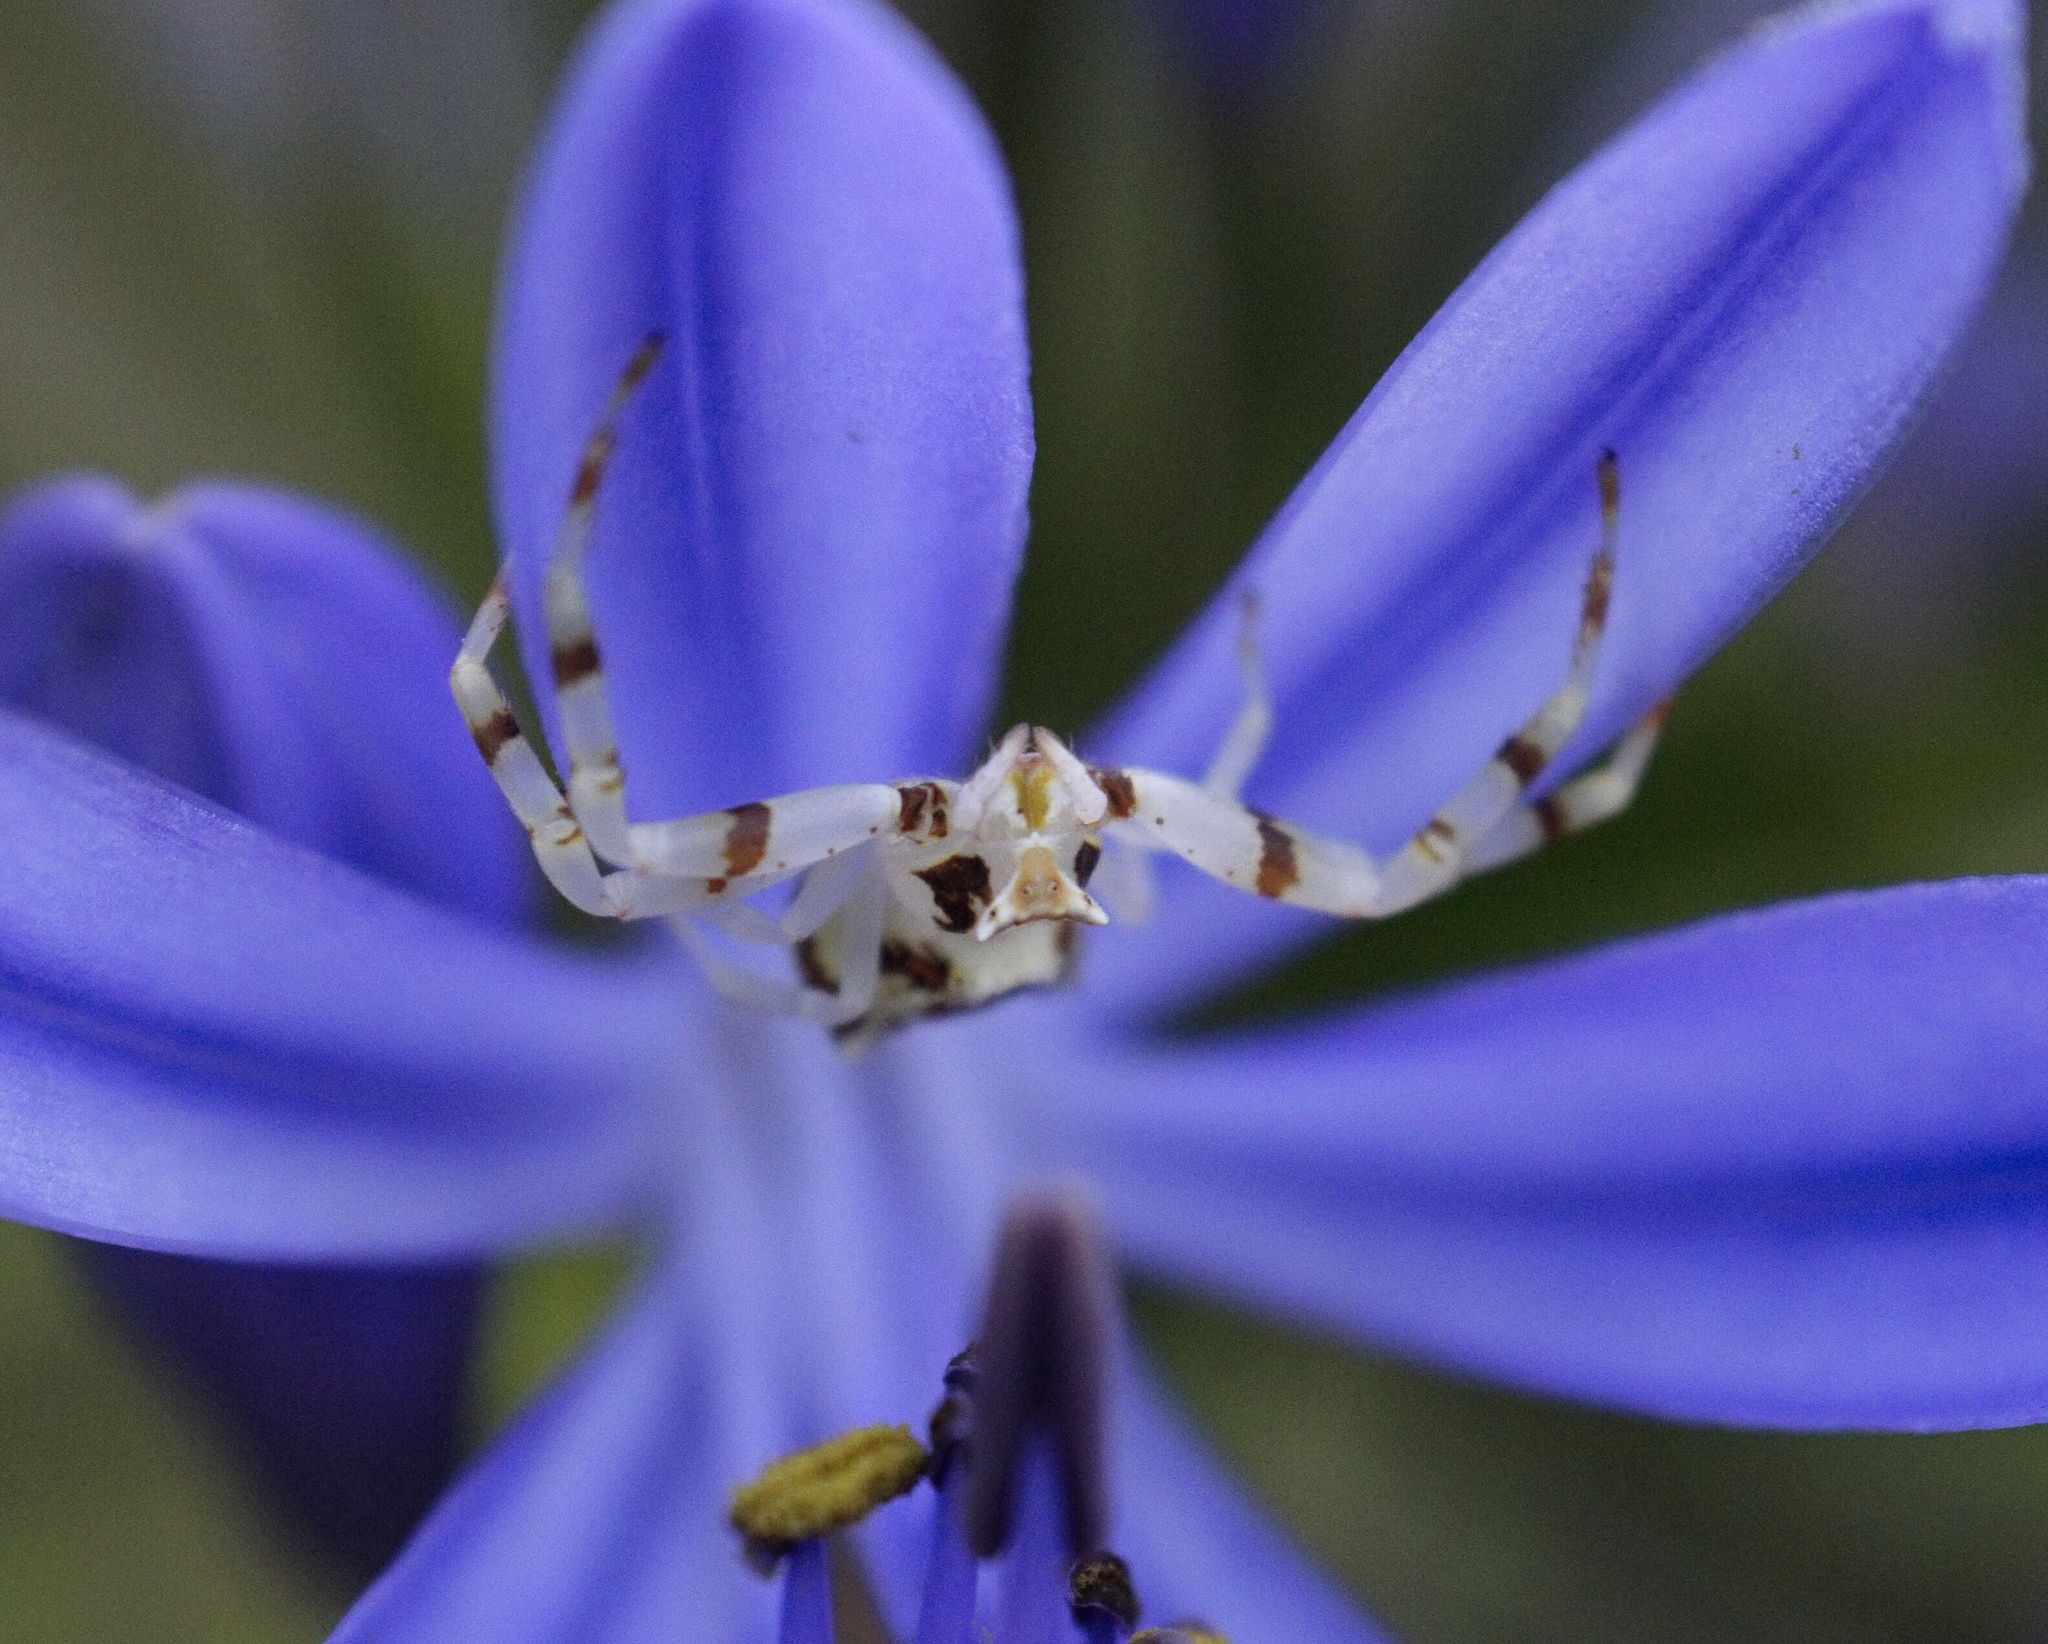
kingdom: Animalia
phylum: Arthropoda
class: Arachnida
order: Araneae
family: Thomisidae
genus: Thomisus
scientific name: Thomisus citrinellus
